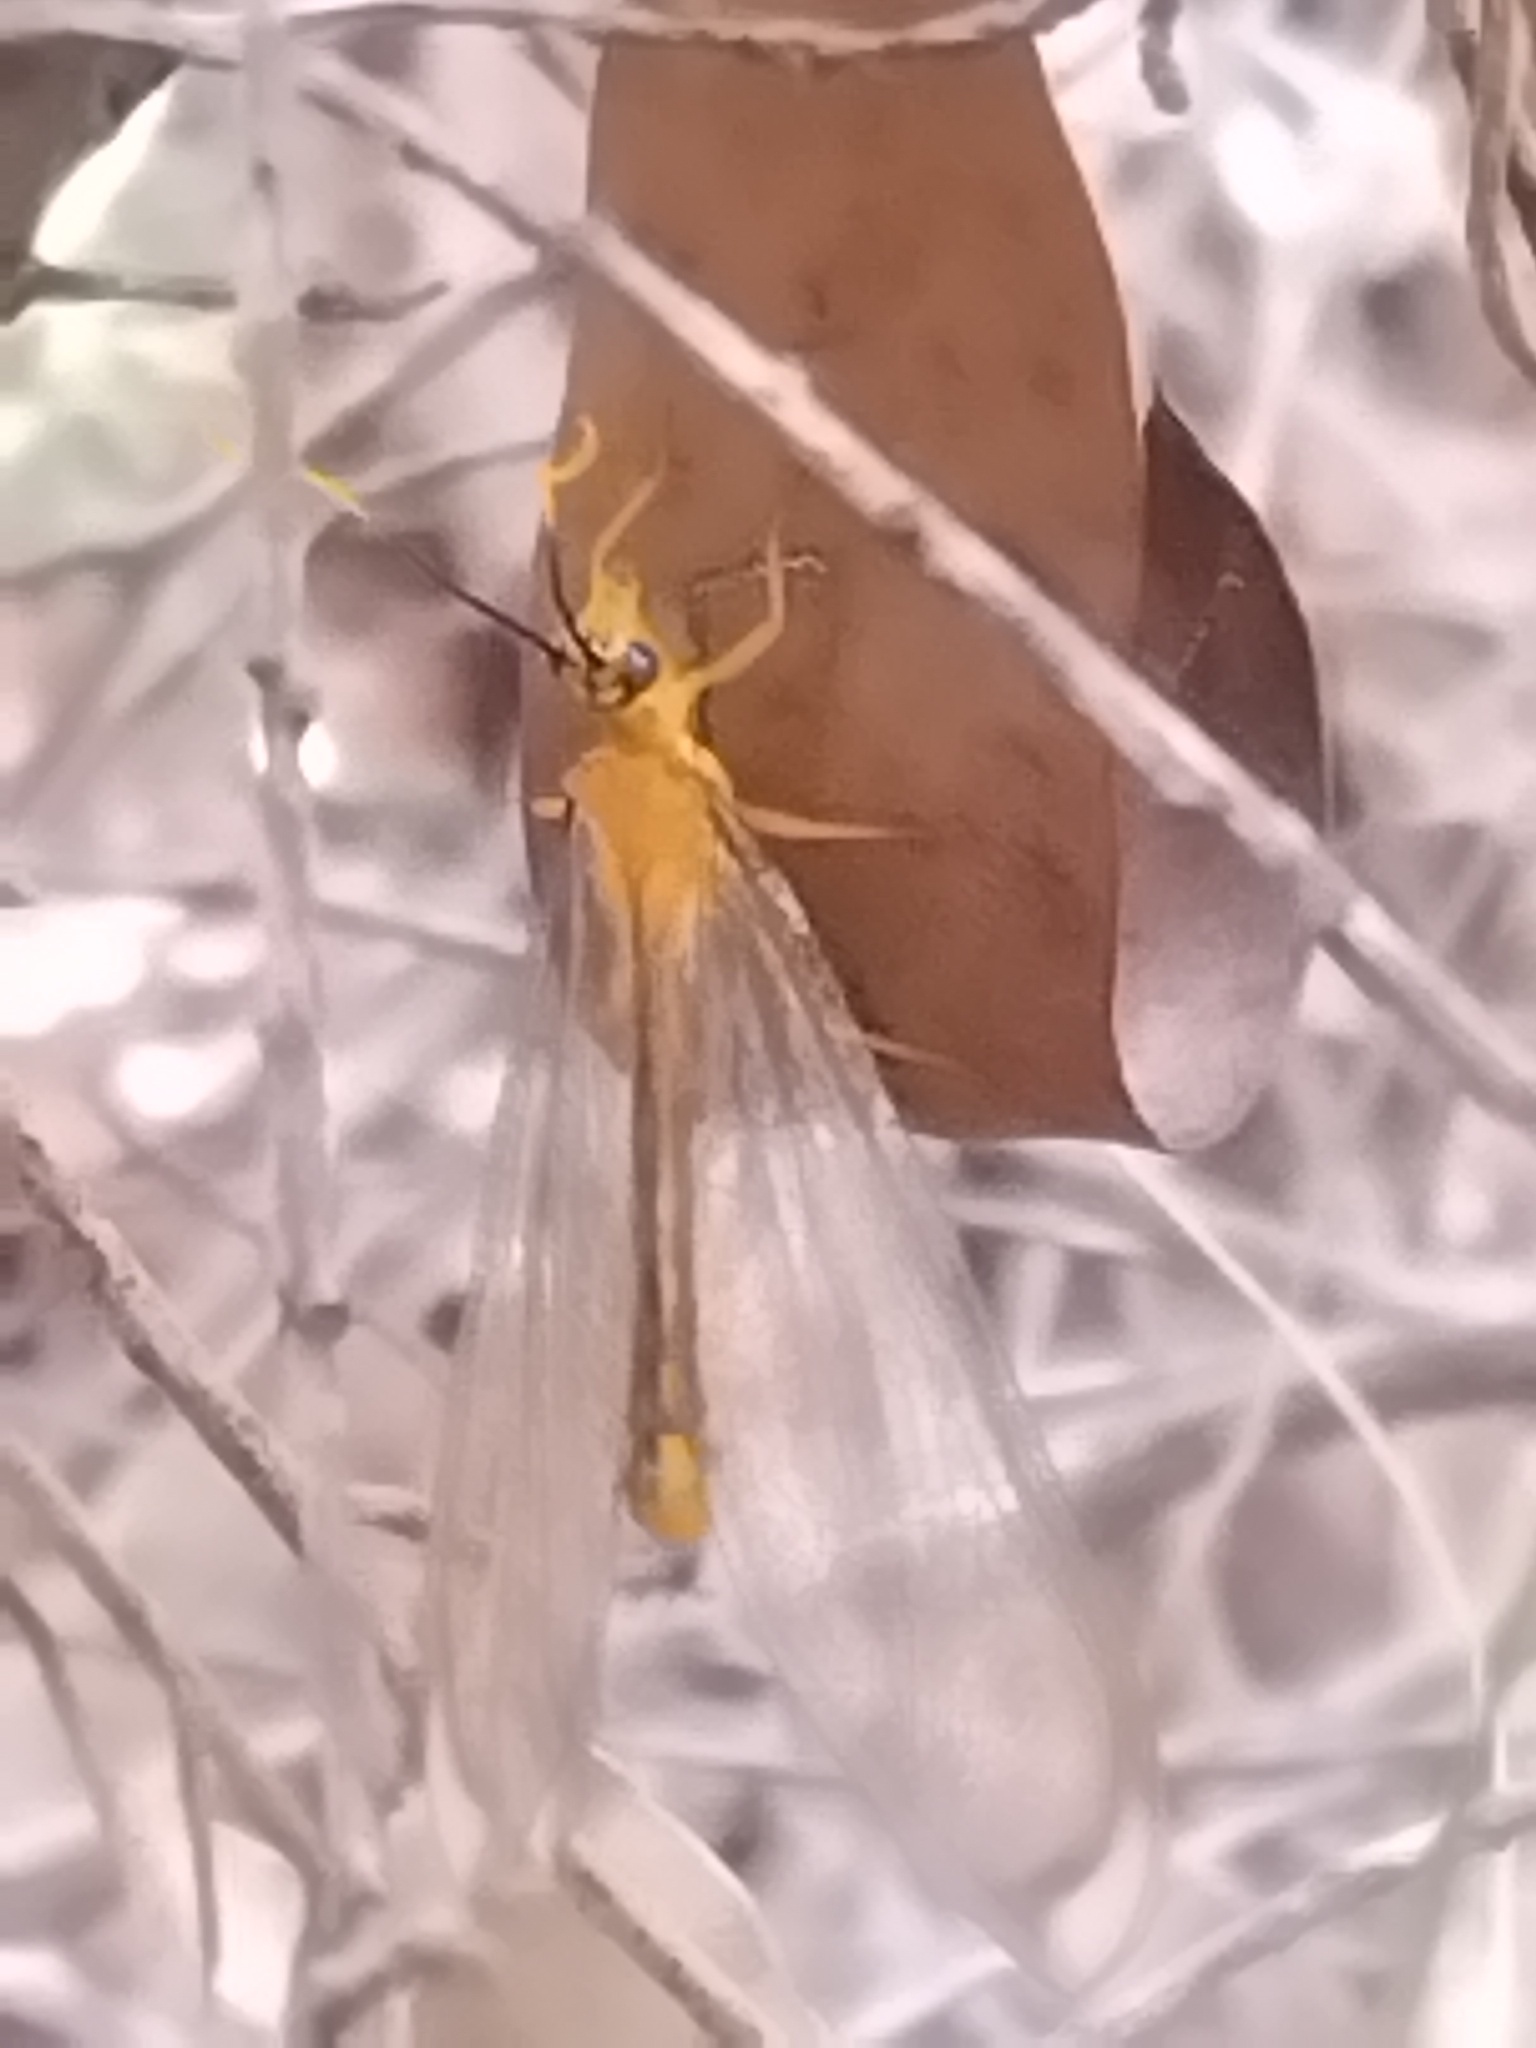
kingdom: Animalia
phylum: Arthropoda
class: Insecta
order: Neuroptera
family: Nymphidae
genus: Nymphes
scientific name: Nymphes myrmeleonoides
